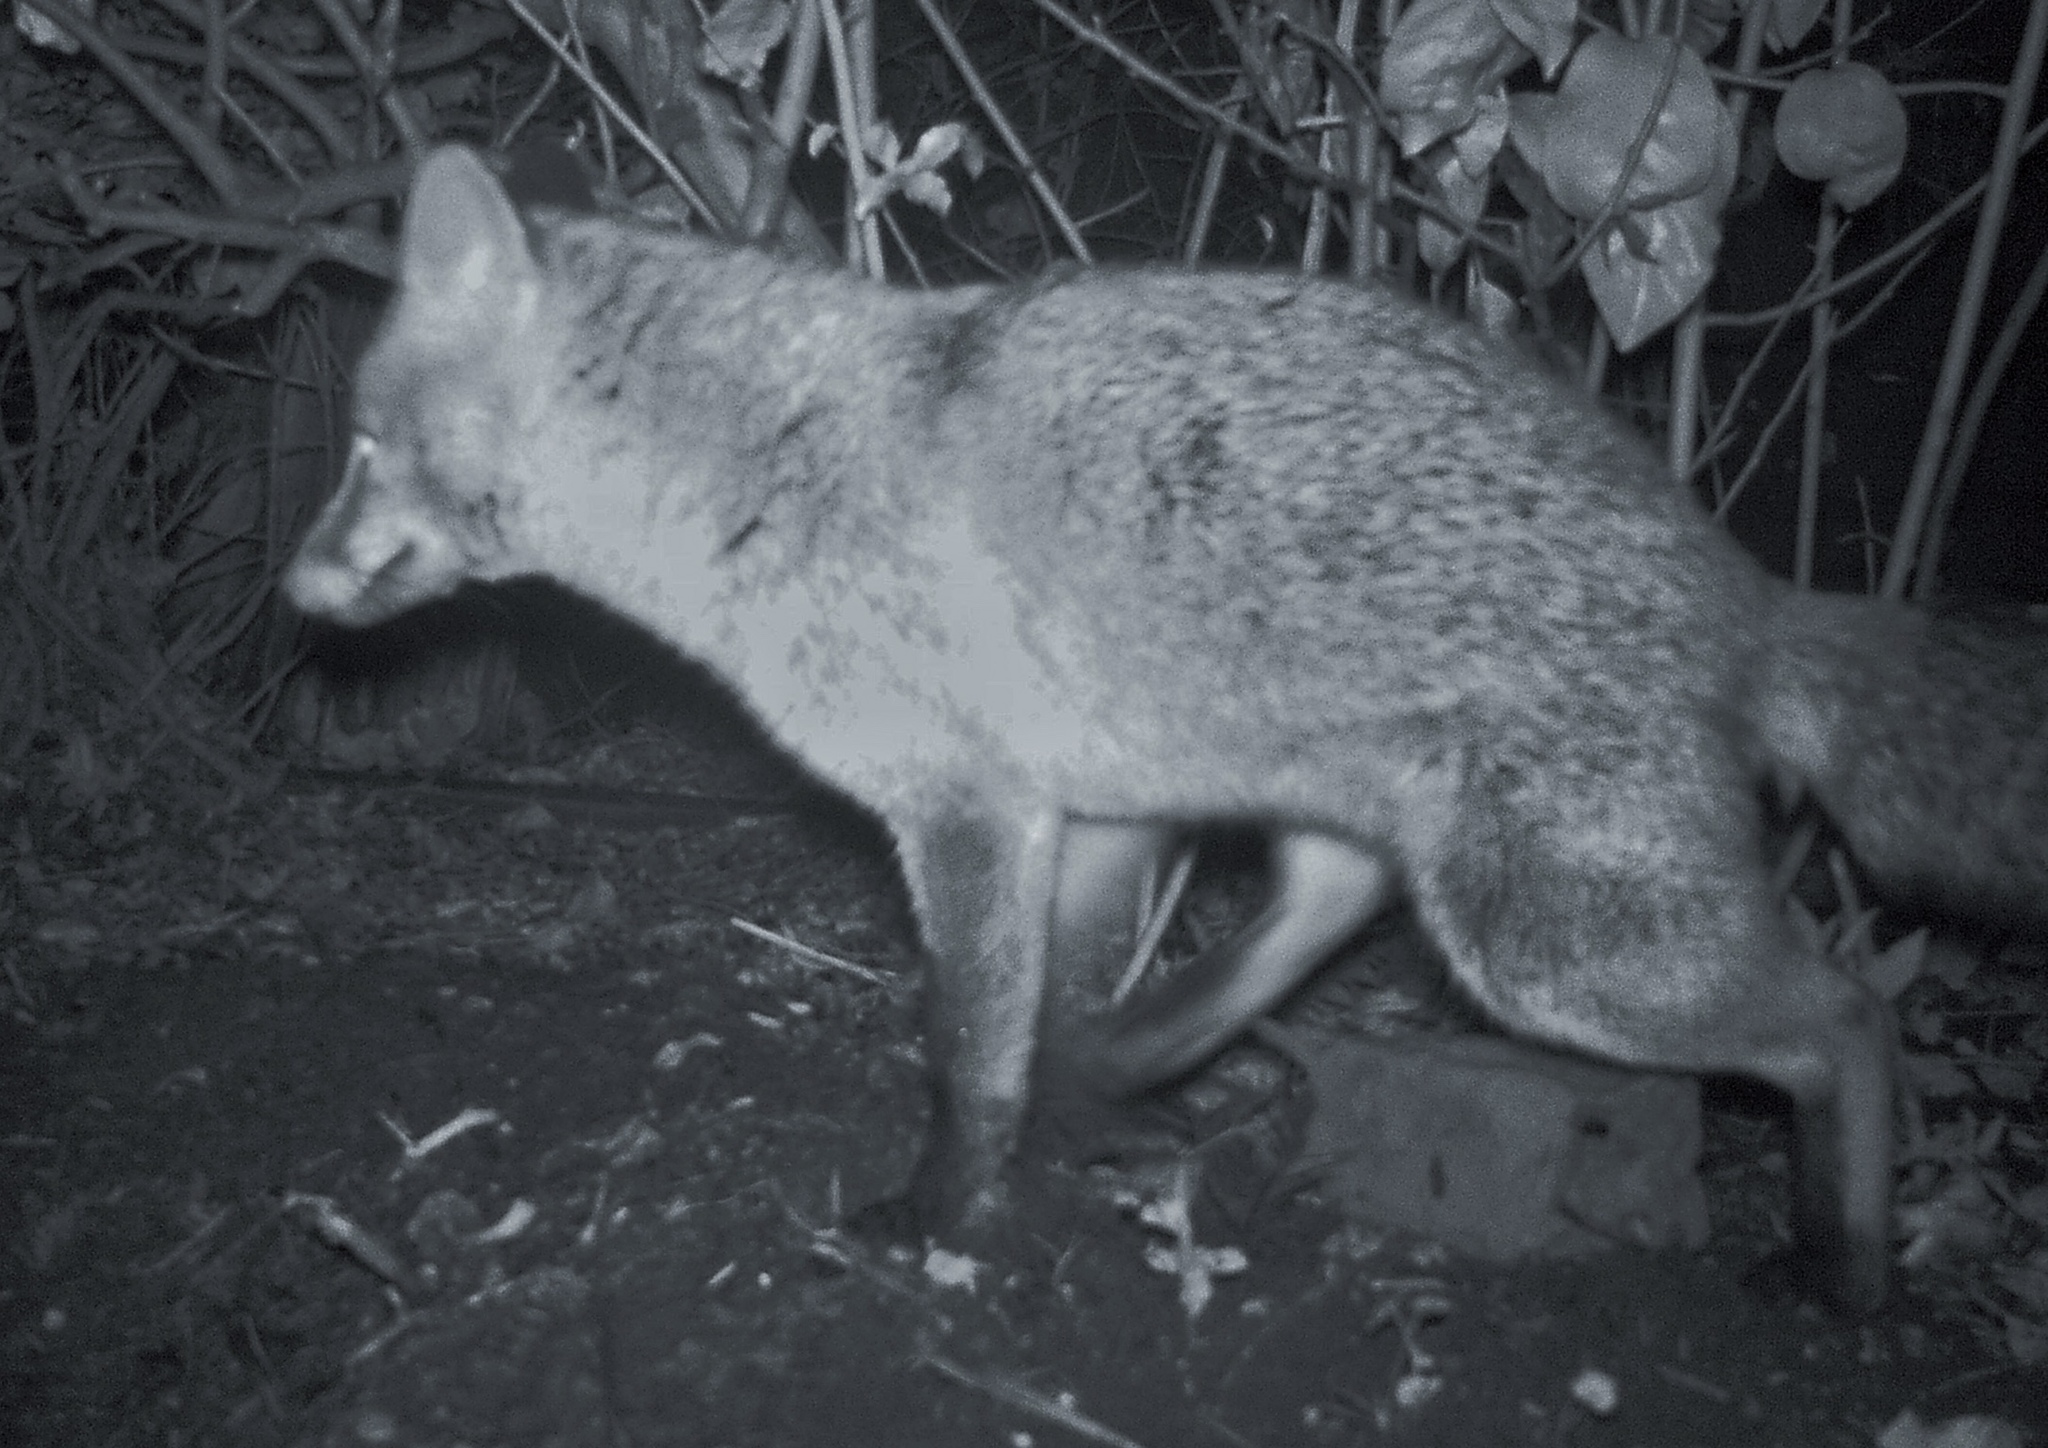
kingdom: Animalia
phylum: Chordata
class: Mammalia
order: Carnivora
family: Canidae
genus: Vulpes
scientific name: Vulpes vulpes
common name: Red fox
